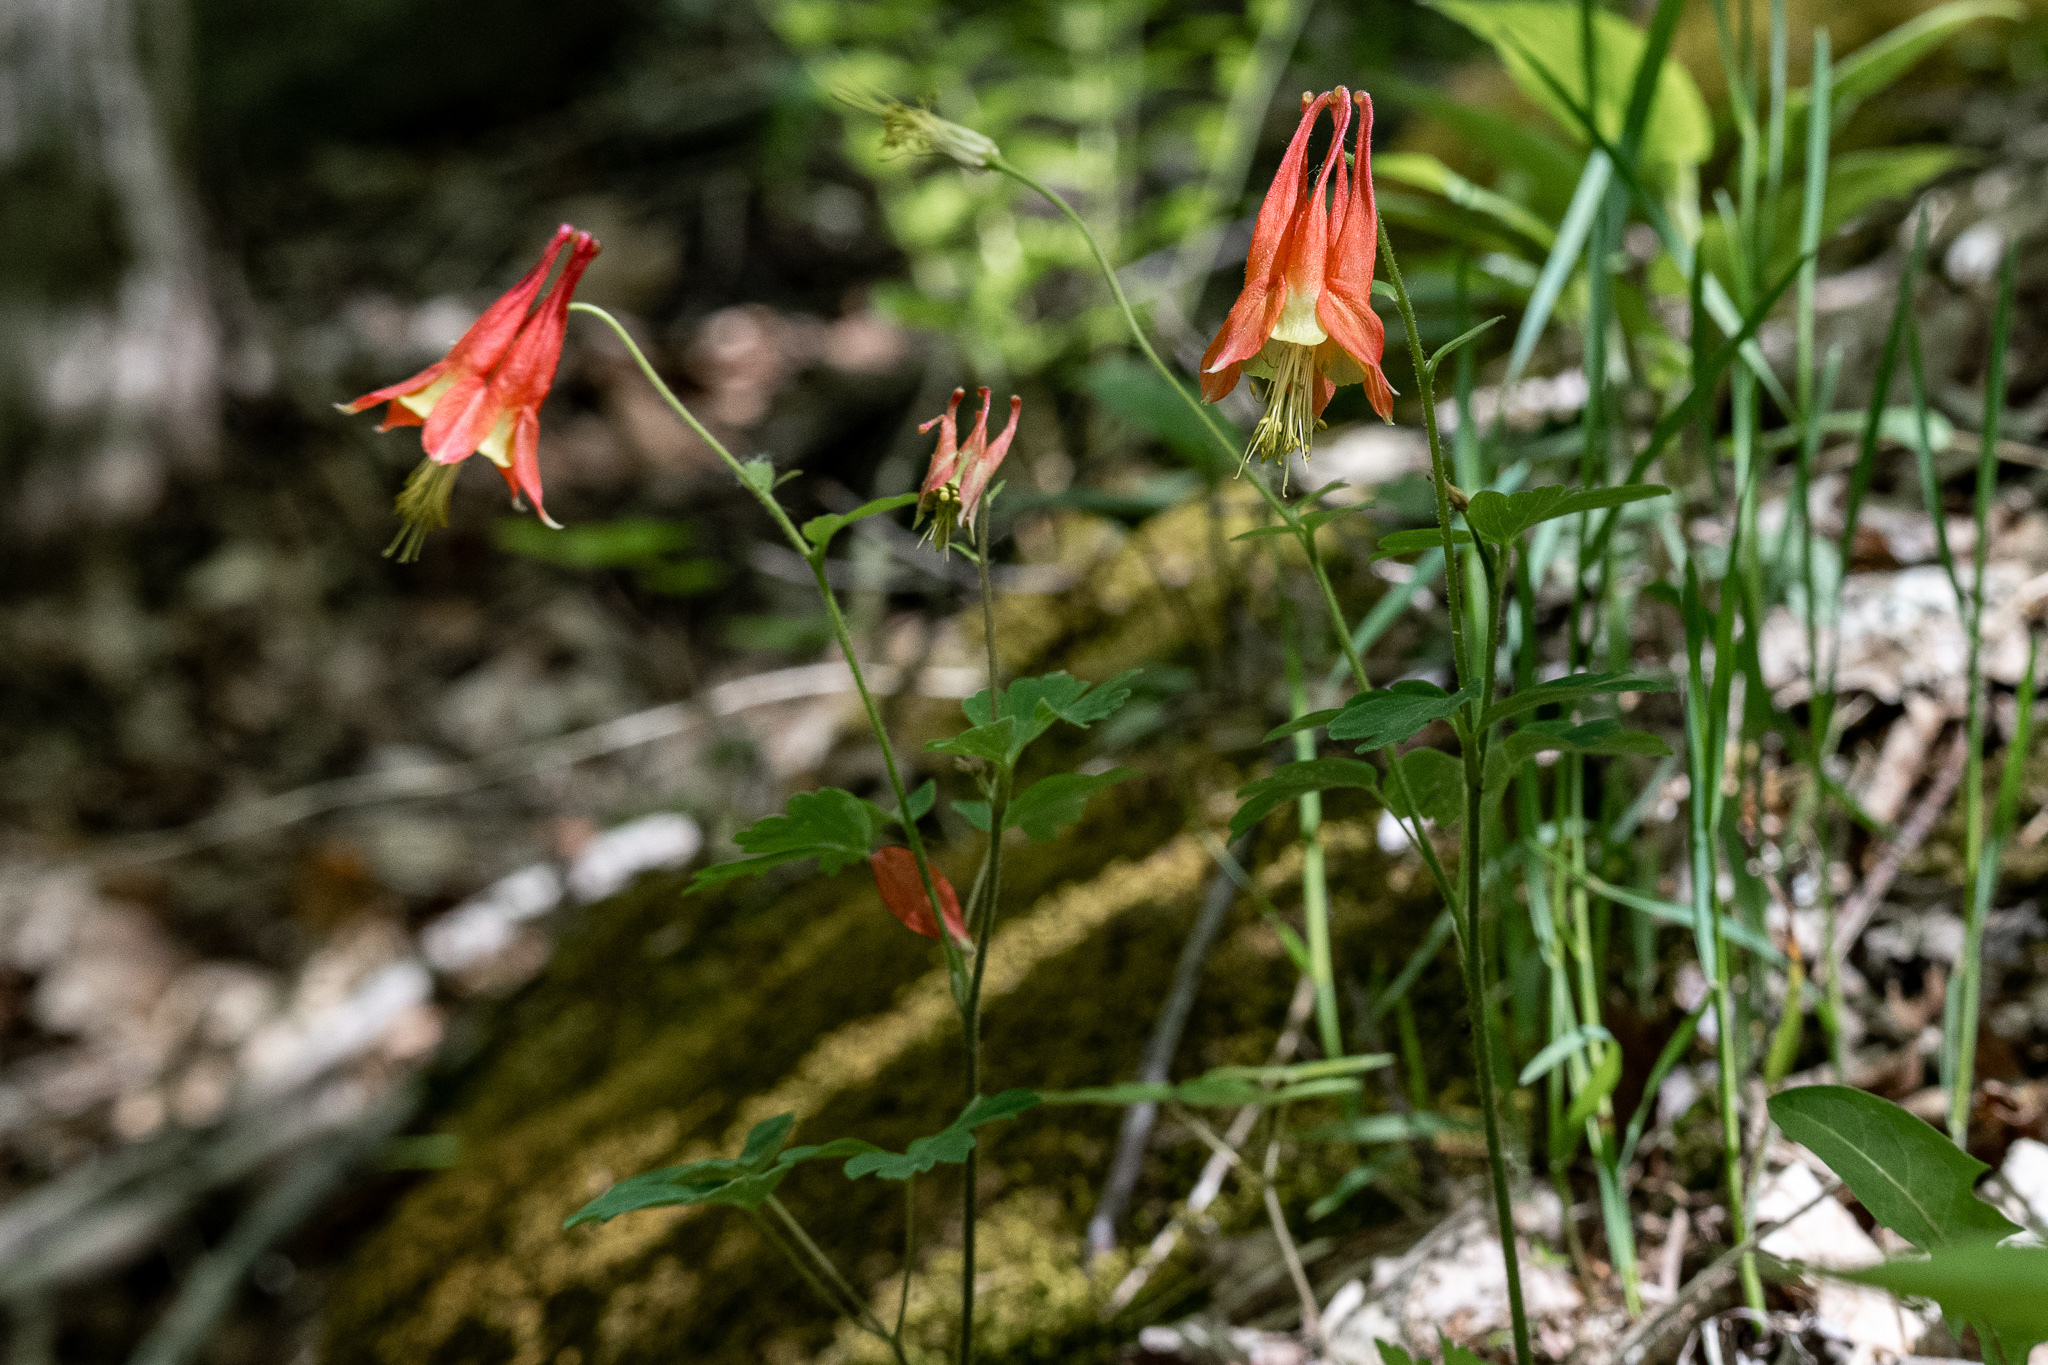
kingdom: Plantae
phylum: Tracheophyta
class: Magnoliopsida
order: Ranunculales
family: Ranunculaceae
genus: Aquilegia
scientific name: Aquilegia canadensis
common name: American columbine
